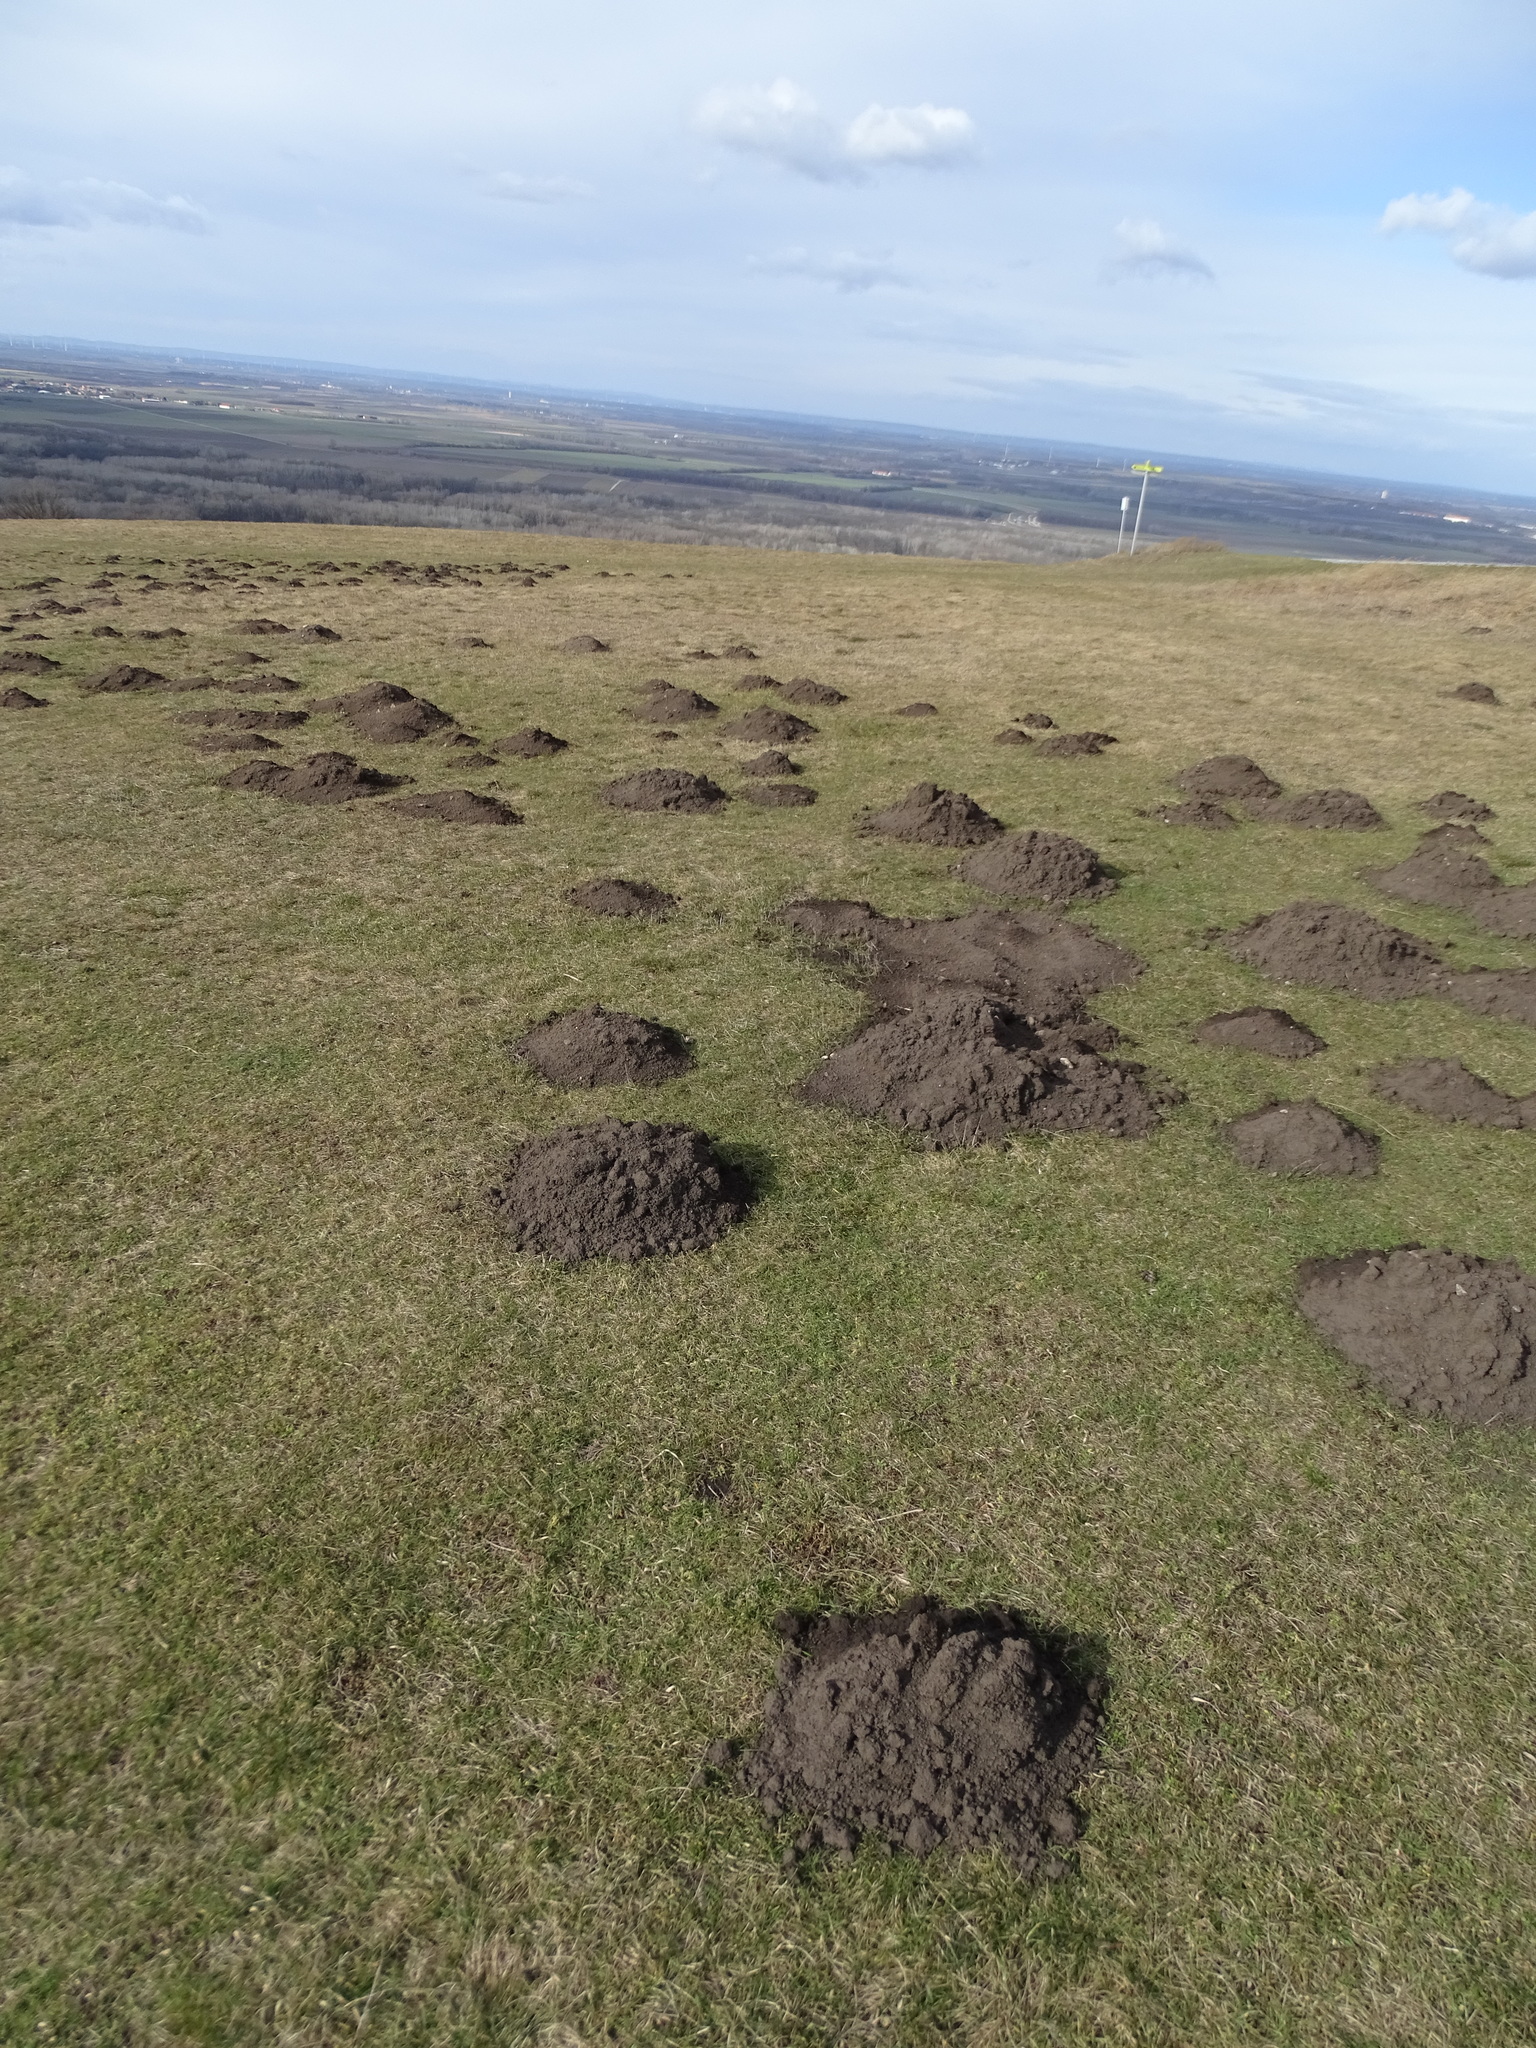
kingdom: Animalia
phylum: Chordata
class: Mammalia
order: Soricomorpha
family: Talpidae
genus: Talpa
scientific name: Talpa europaea
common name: European mole
